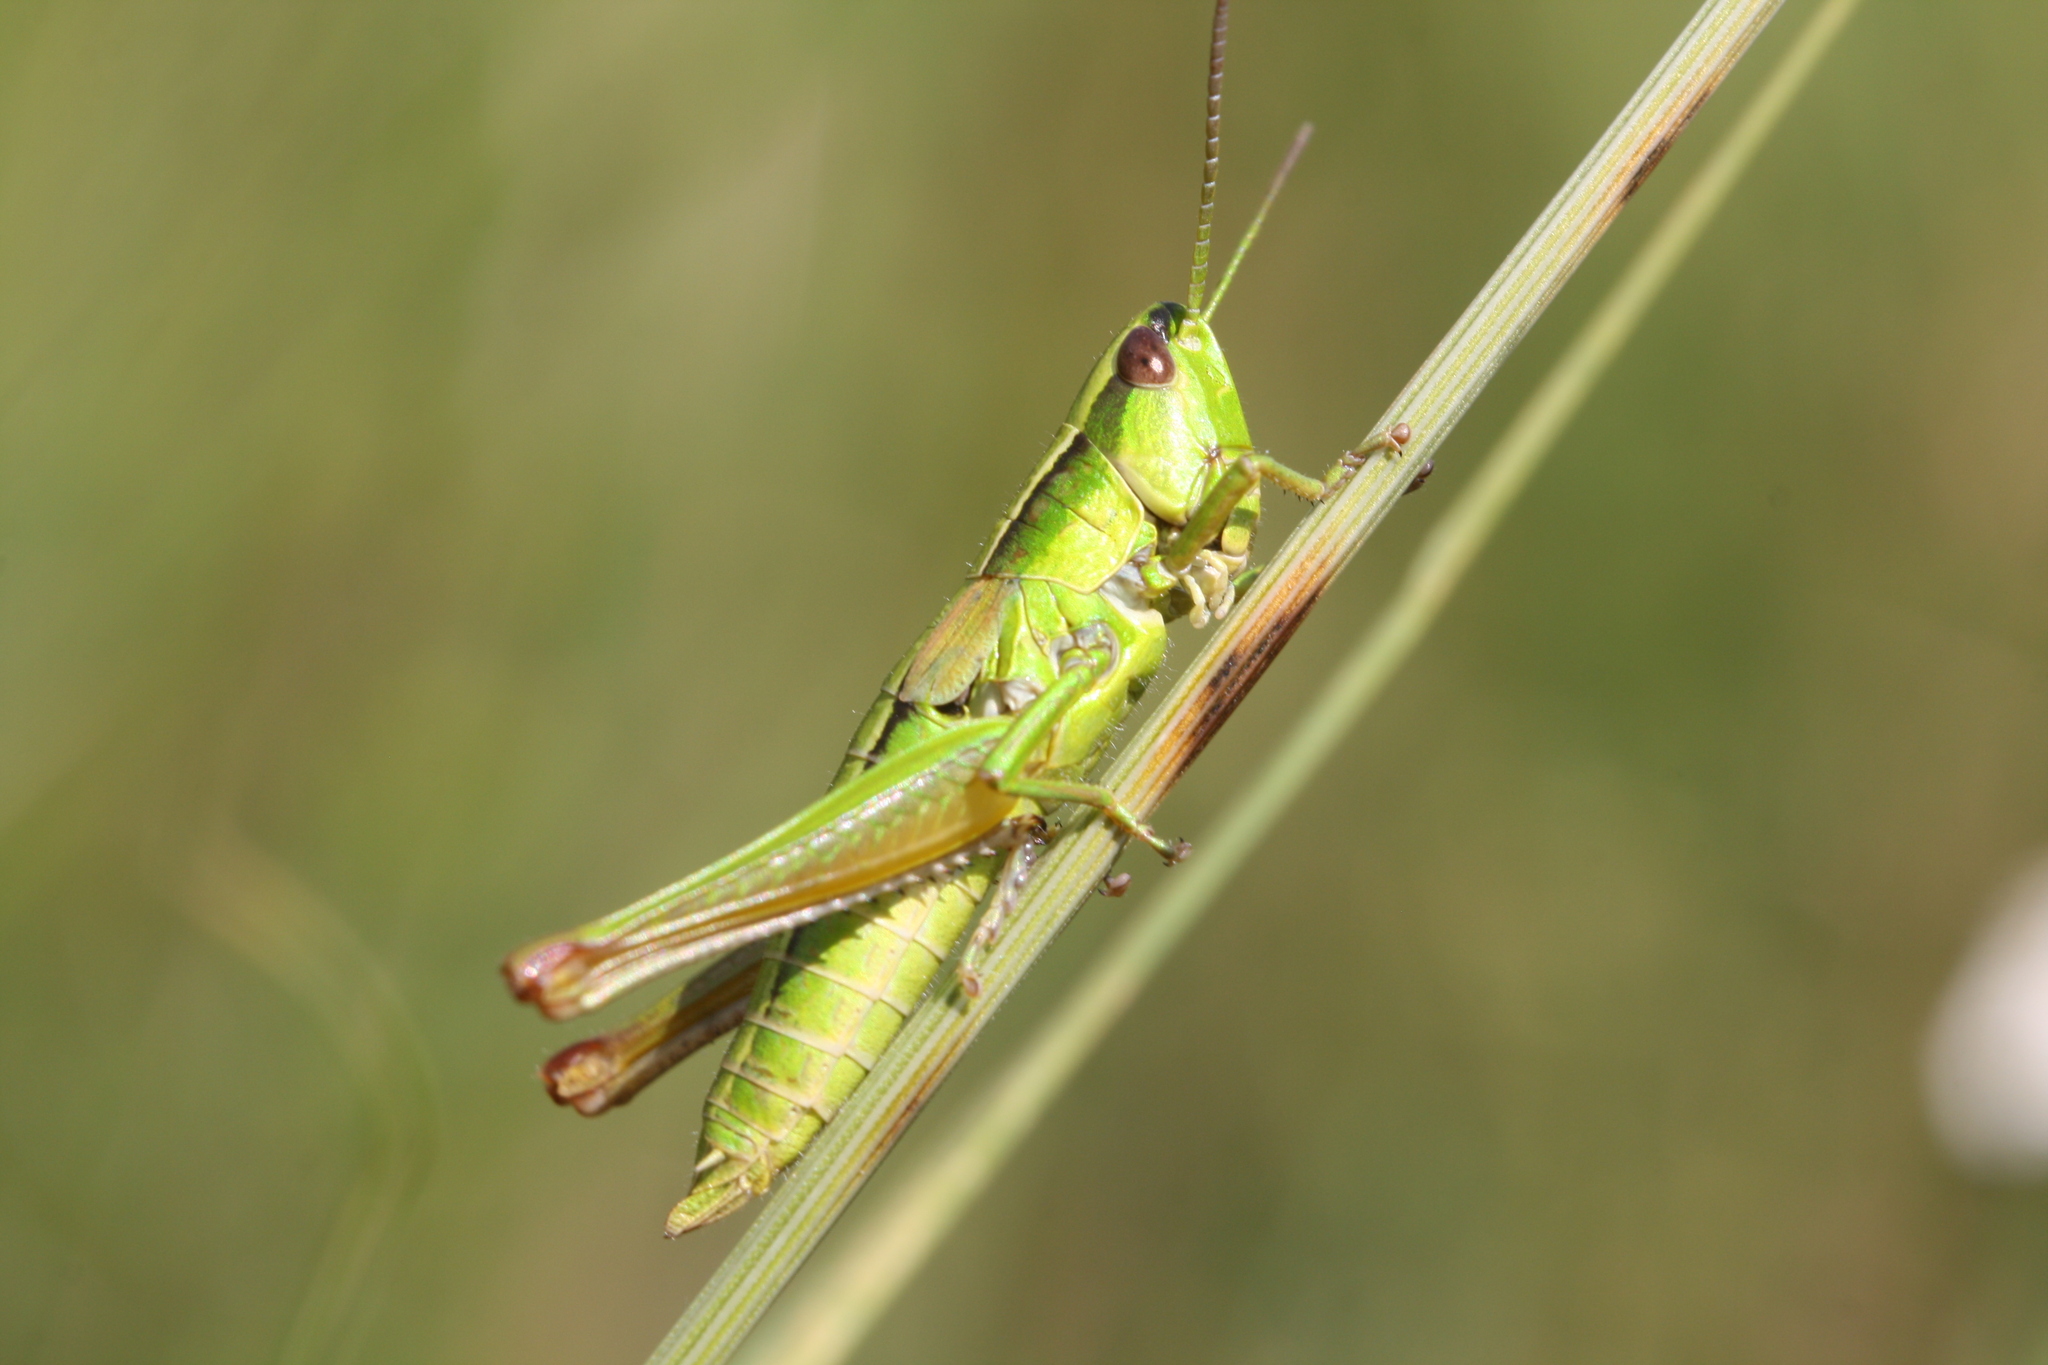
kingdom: Animalia
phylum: Arthropoda
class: Insecta
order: Orthoptera
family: Acrididae
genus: Euthystira
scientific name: Euthystira brachyptera
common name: Small gold grasshopper
